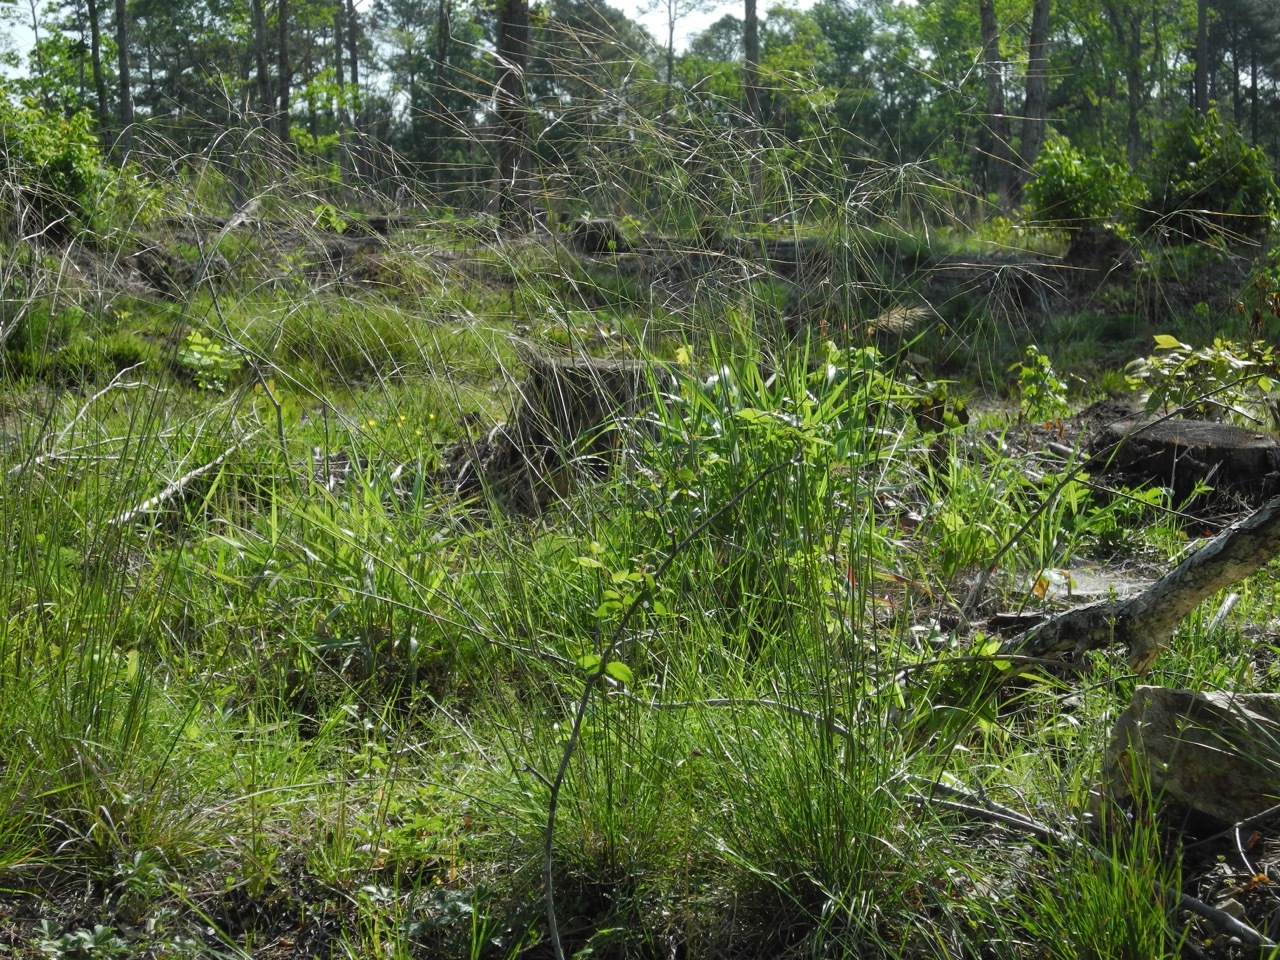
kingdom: Plantae
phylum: Tracheophyta
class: Liliopsida
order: Poales
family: Poaceae
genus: Hesperostipa
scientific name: Hesperostipa spartea
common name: Porcupine grass
